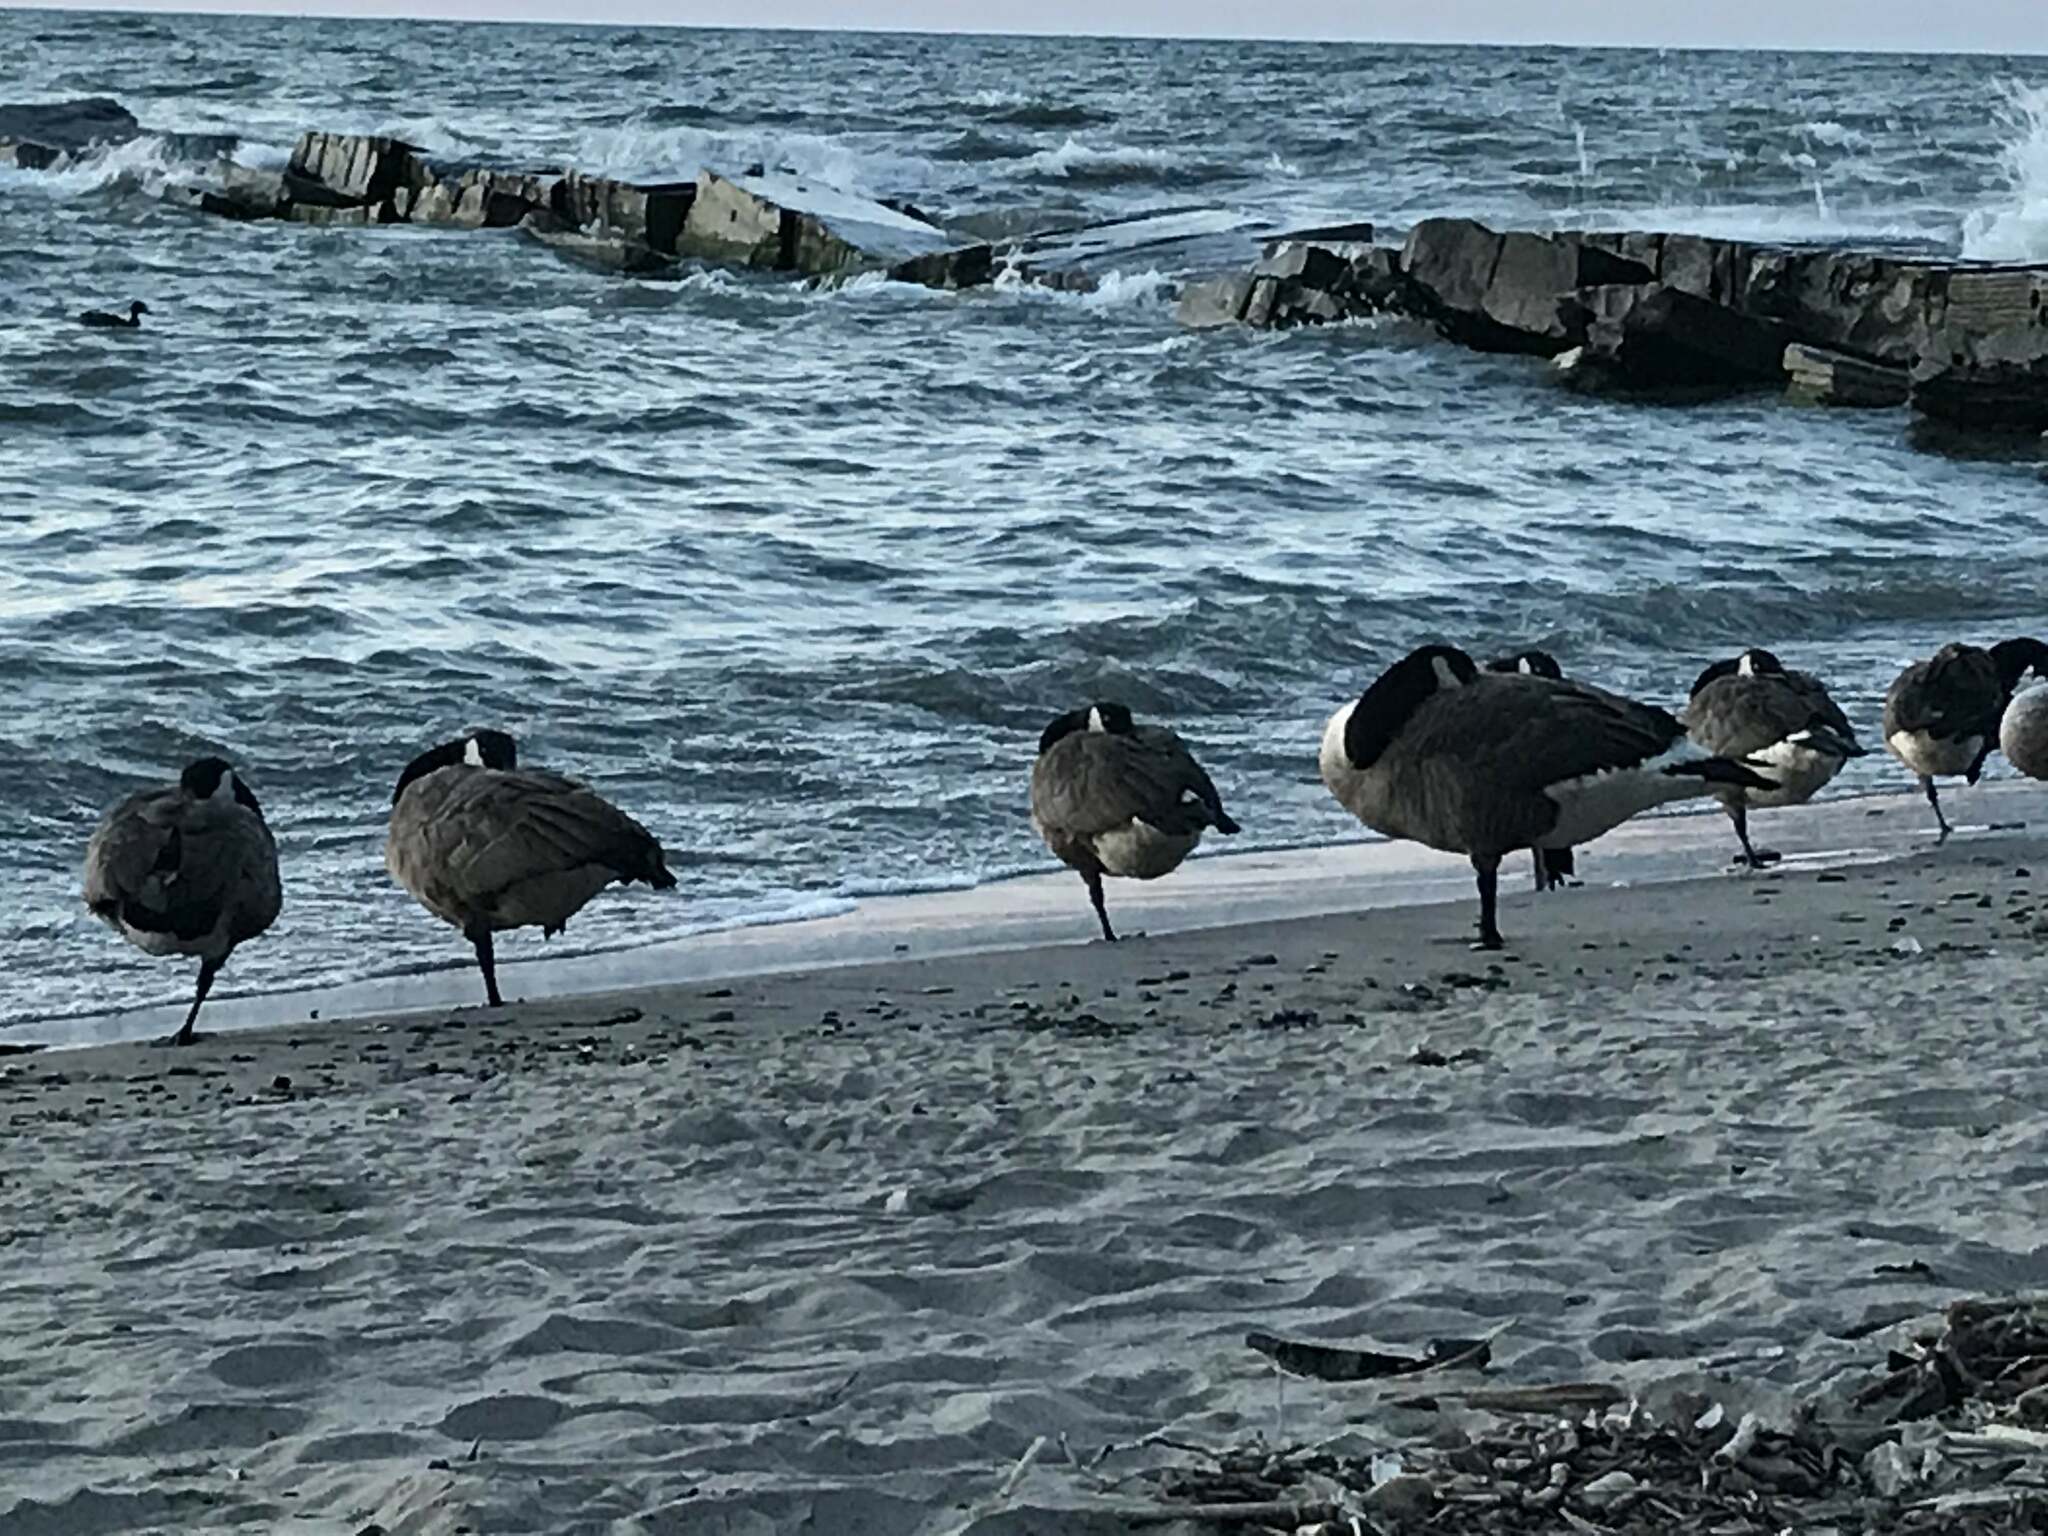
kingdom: Animalia
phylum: Chordata
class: Aves
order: Anseriformes
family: Anatidae
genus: Branta
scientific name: Branta canadensis
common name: Canada goose
